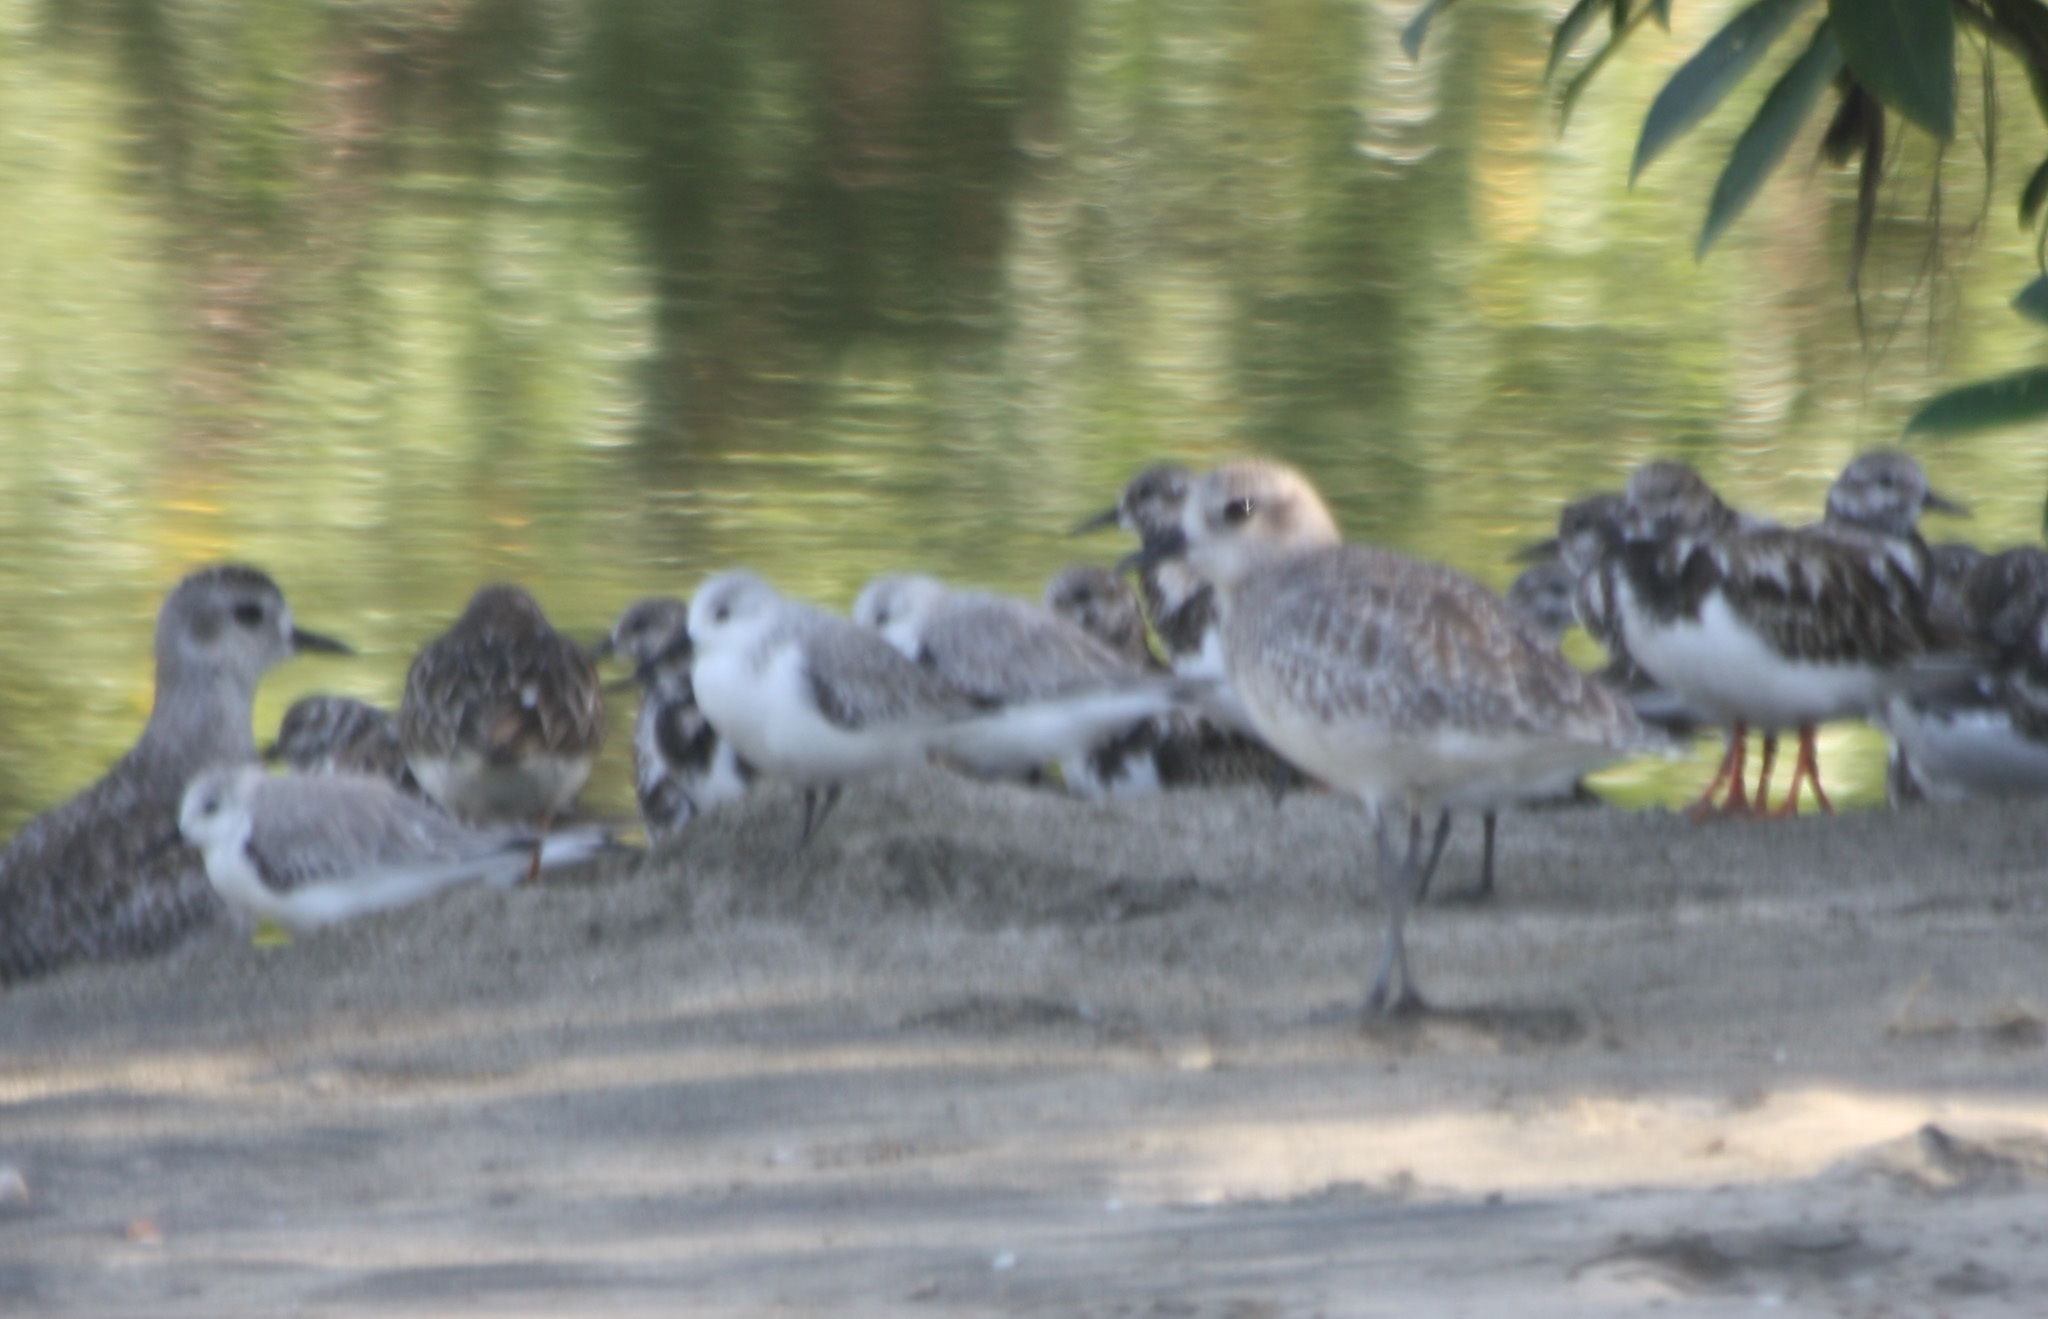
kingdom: Animalia
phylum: Chordata
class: Aves
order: Charadriiformes
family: Scolopacidae
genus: Calidris
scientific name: Calidris alba
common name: Sanderling
